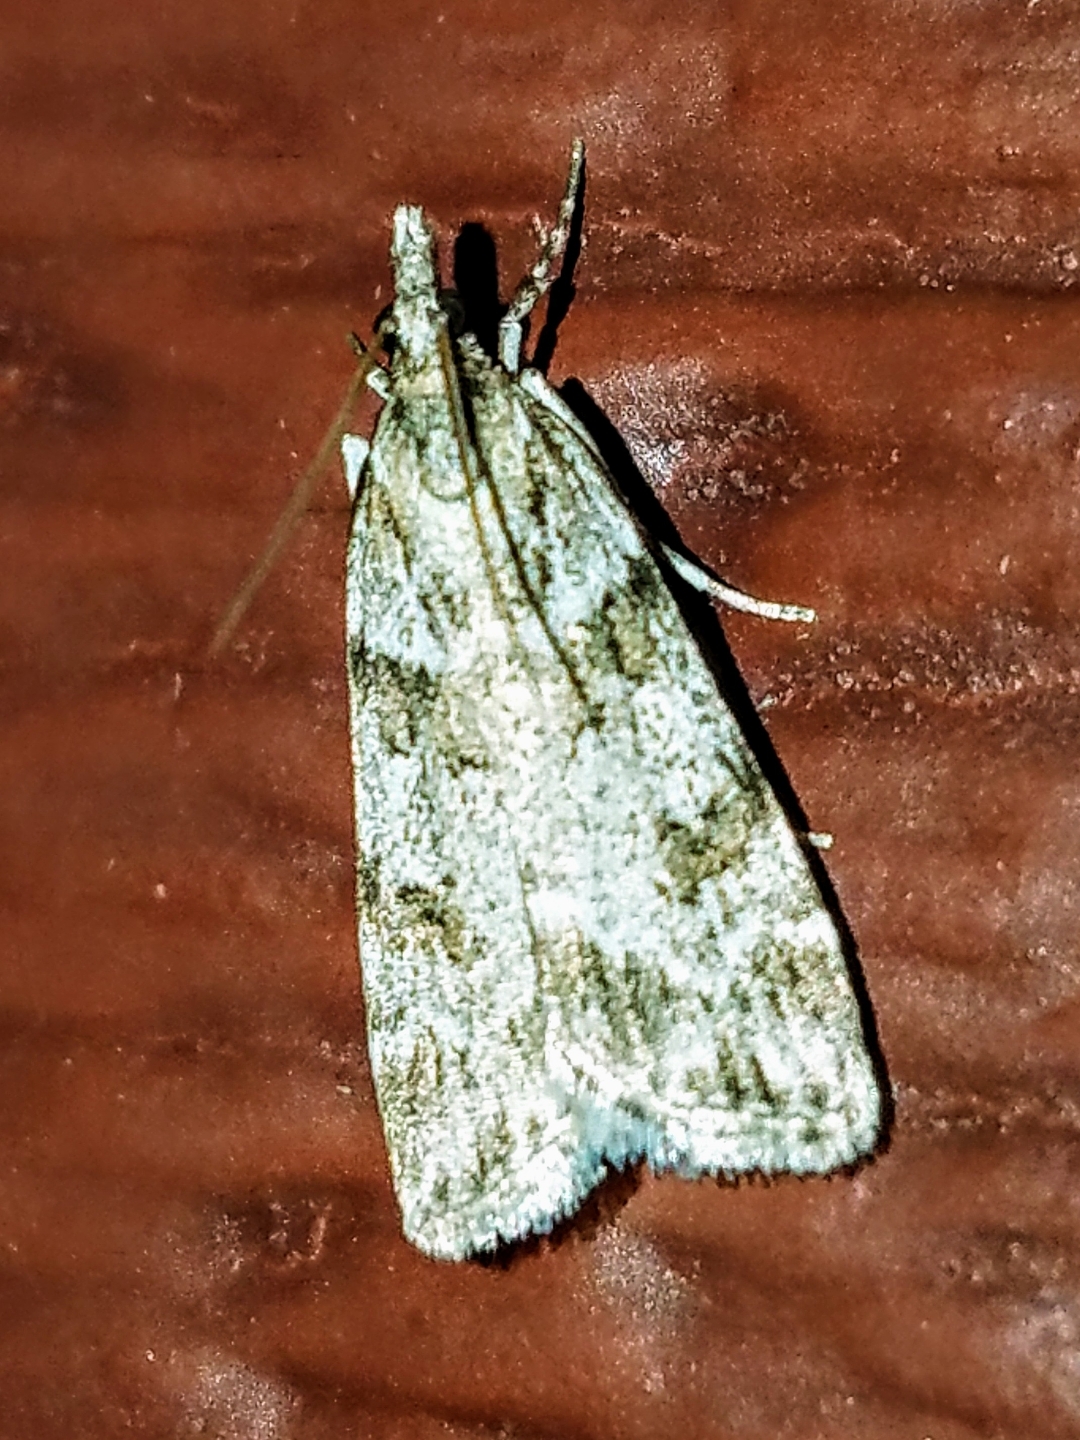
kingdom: Animalia
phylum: Arthropoda
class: Insecta
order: Lepidoptera
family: Crambidae
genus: Scoparia
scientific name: Scoparia biplagialis
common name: Double-striped scoparia moth
